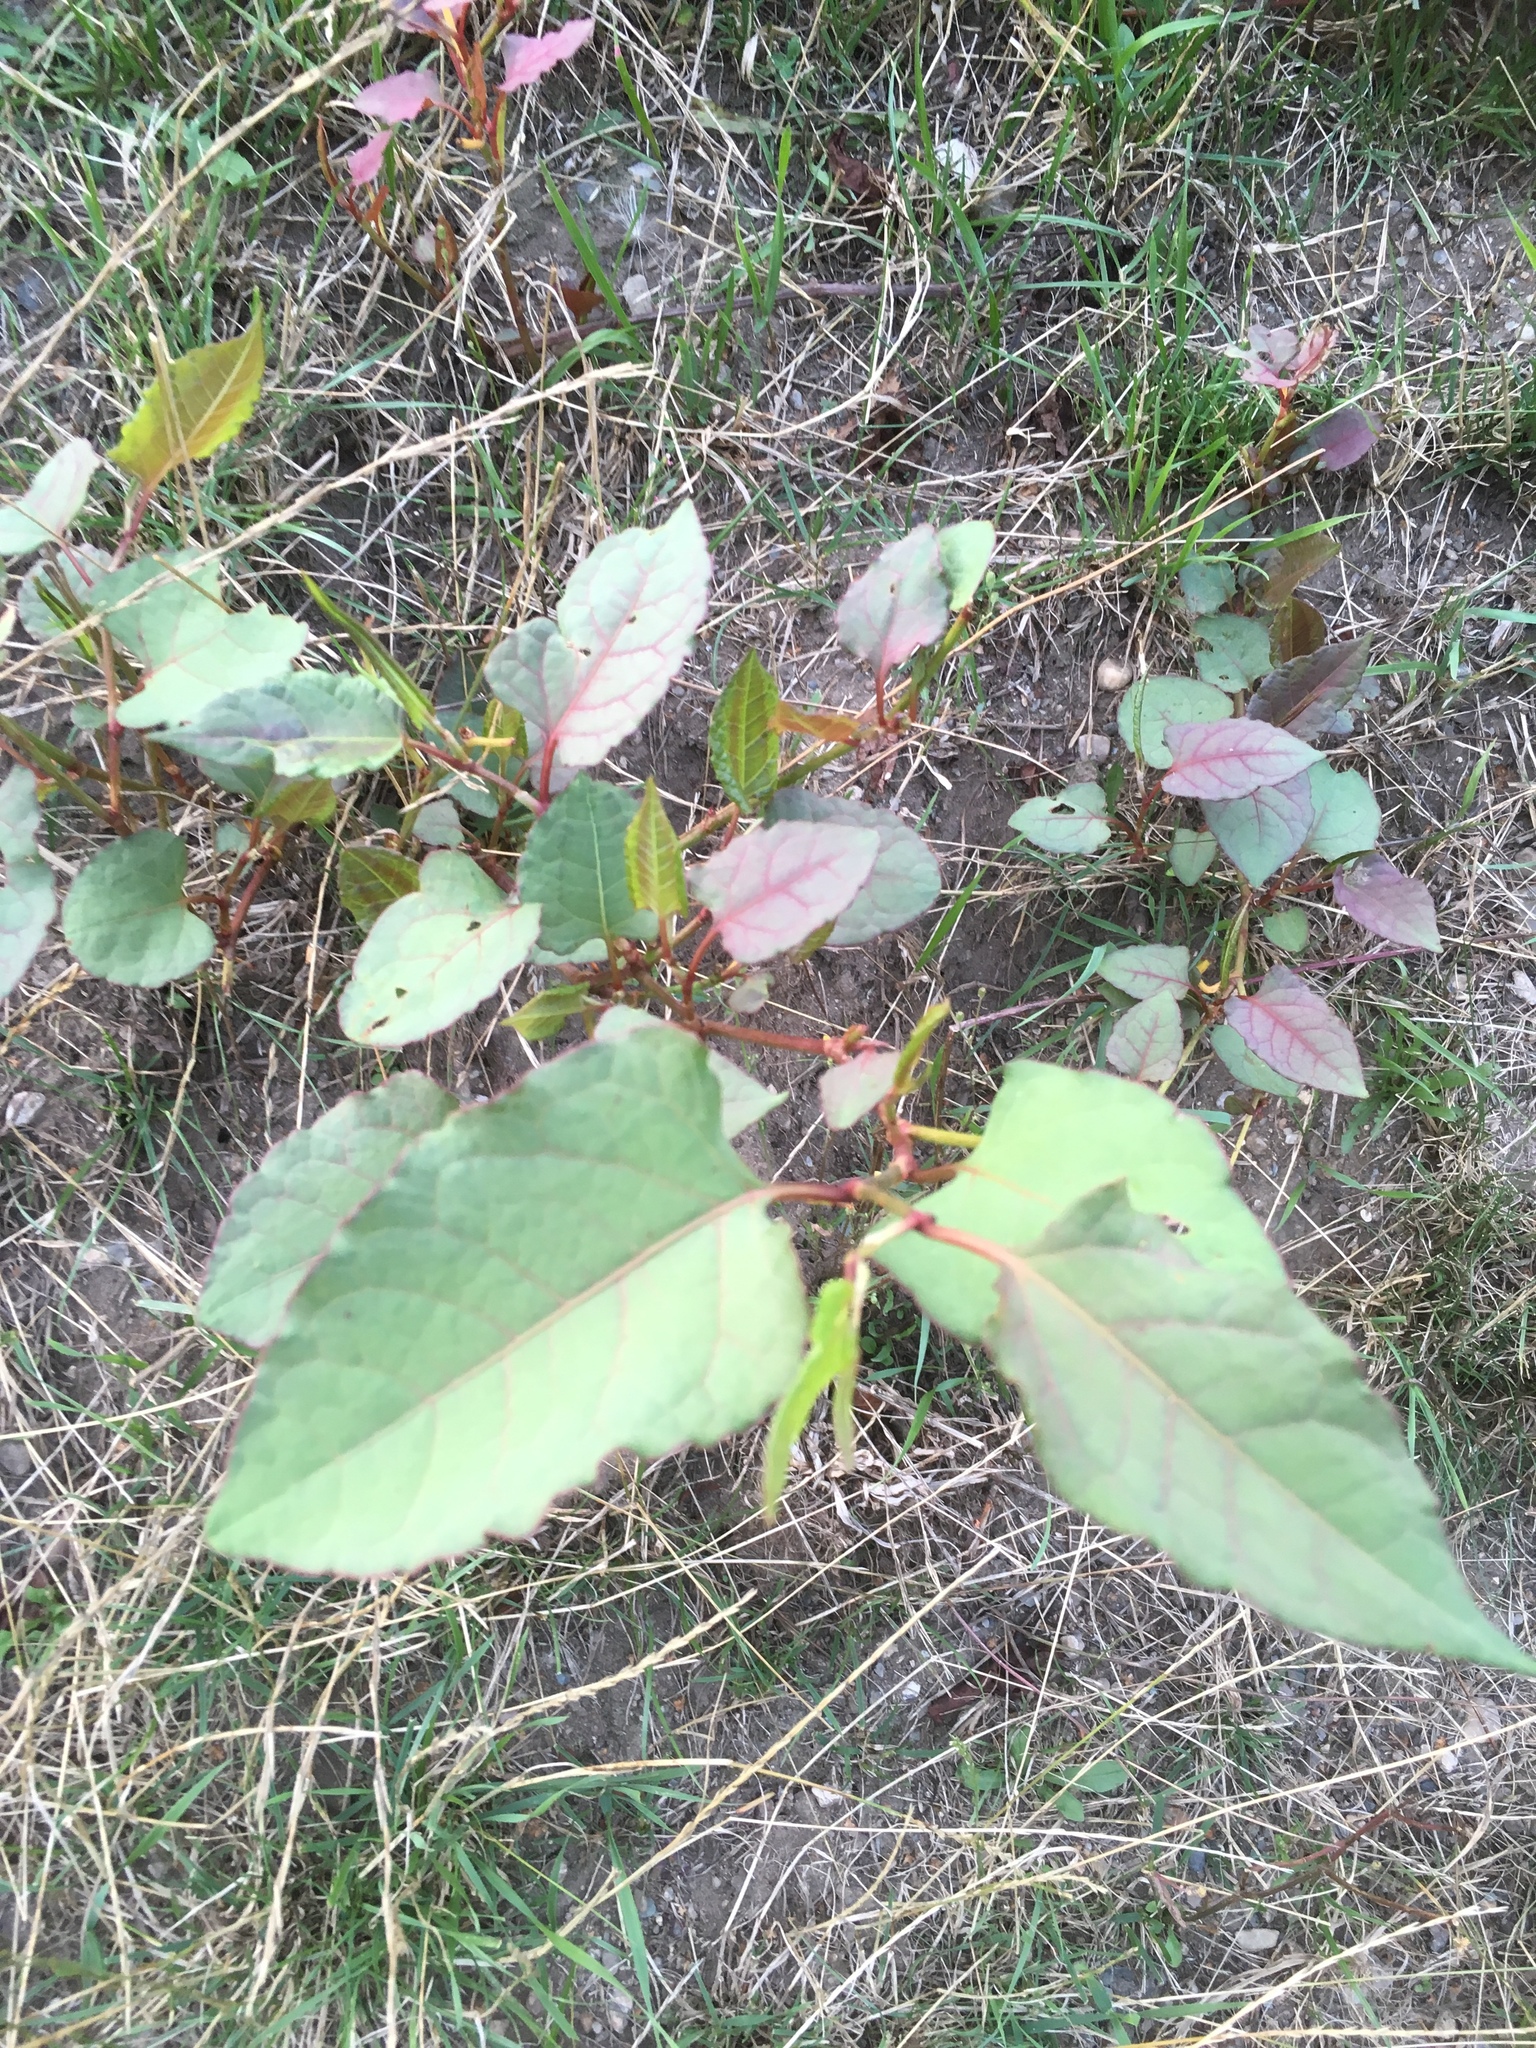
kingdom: Plantae
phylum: Tracheophyta
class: Magnoliopsida
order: Caryophyllales
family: Polygonaceae
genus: Reynoutria
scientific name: Reynoutria japonica
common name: Japanese knotweed
